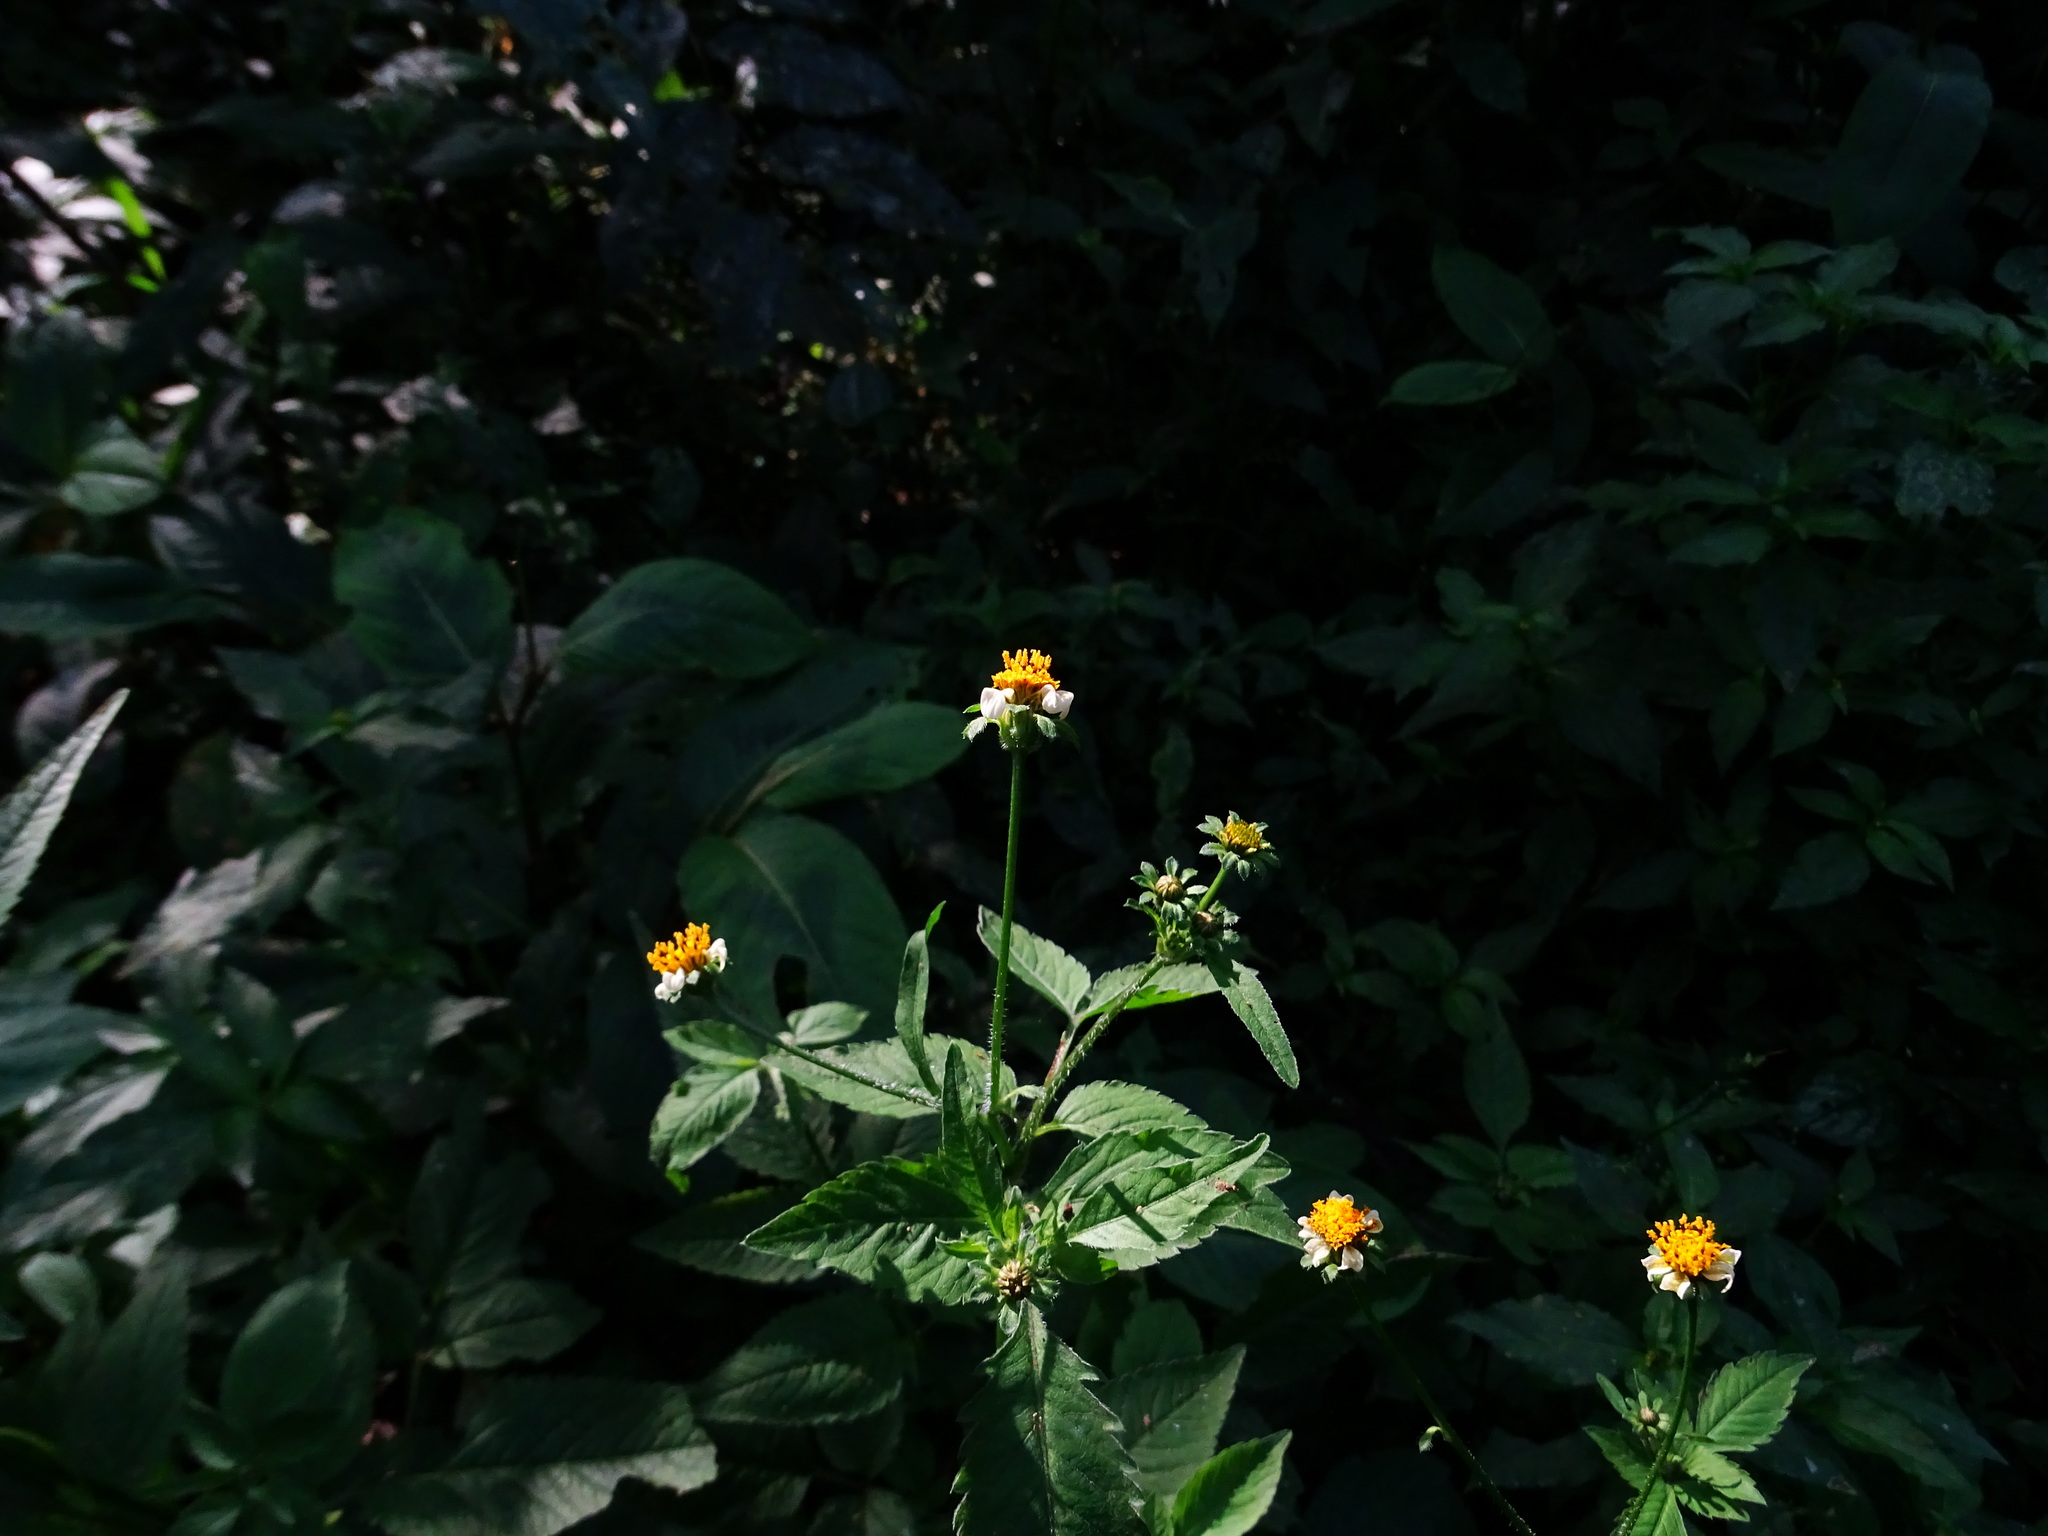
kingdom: Plantae
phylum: Tracheophyta
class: Magnoliopsida
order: Caryophyllales
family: Polygonaceae
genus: Persicaria
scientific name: Persicaria chinensis
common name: Chinese knotweed
